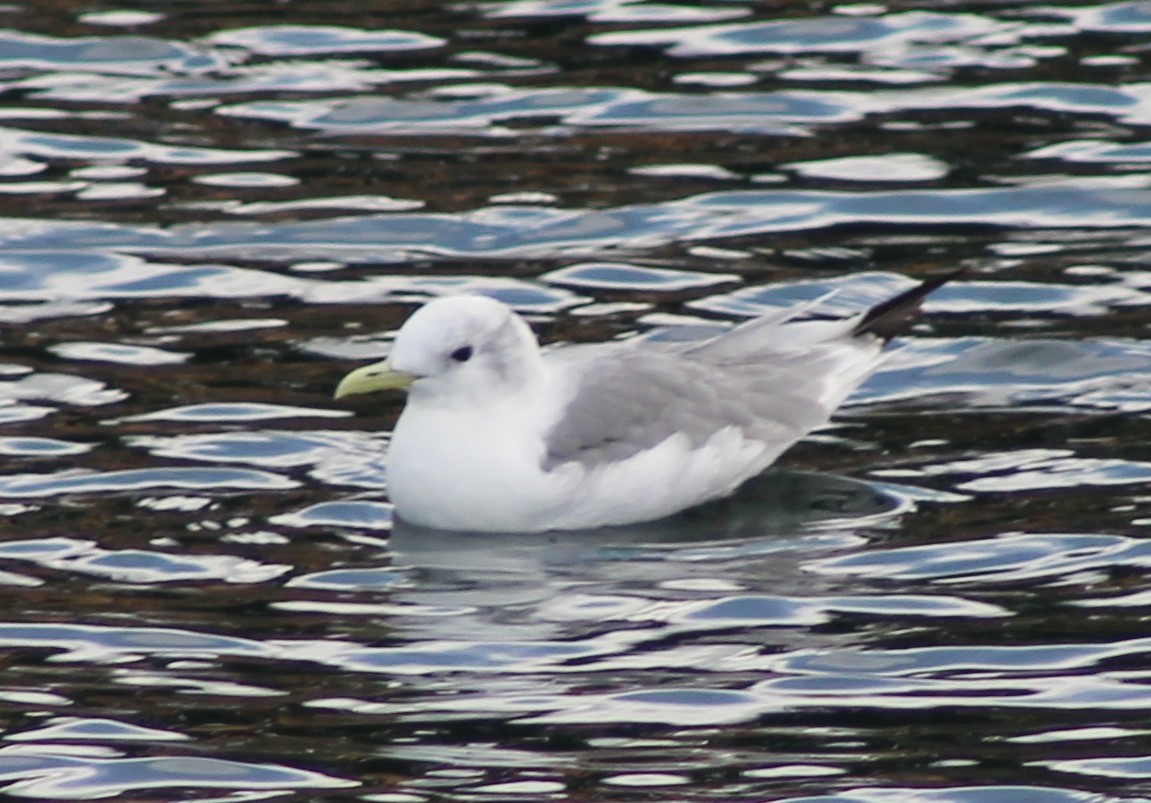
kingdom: Animalia
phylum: Chordata
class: Aves
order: Charadriiformes
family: Laridae
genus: Rissa
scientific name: Rissa tridactyla
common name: Black-legged kittiwake
